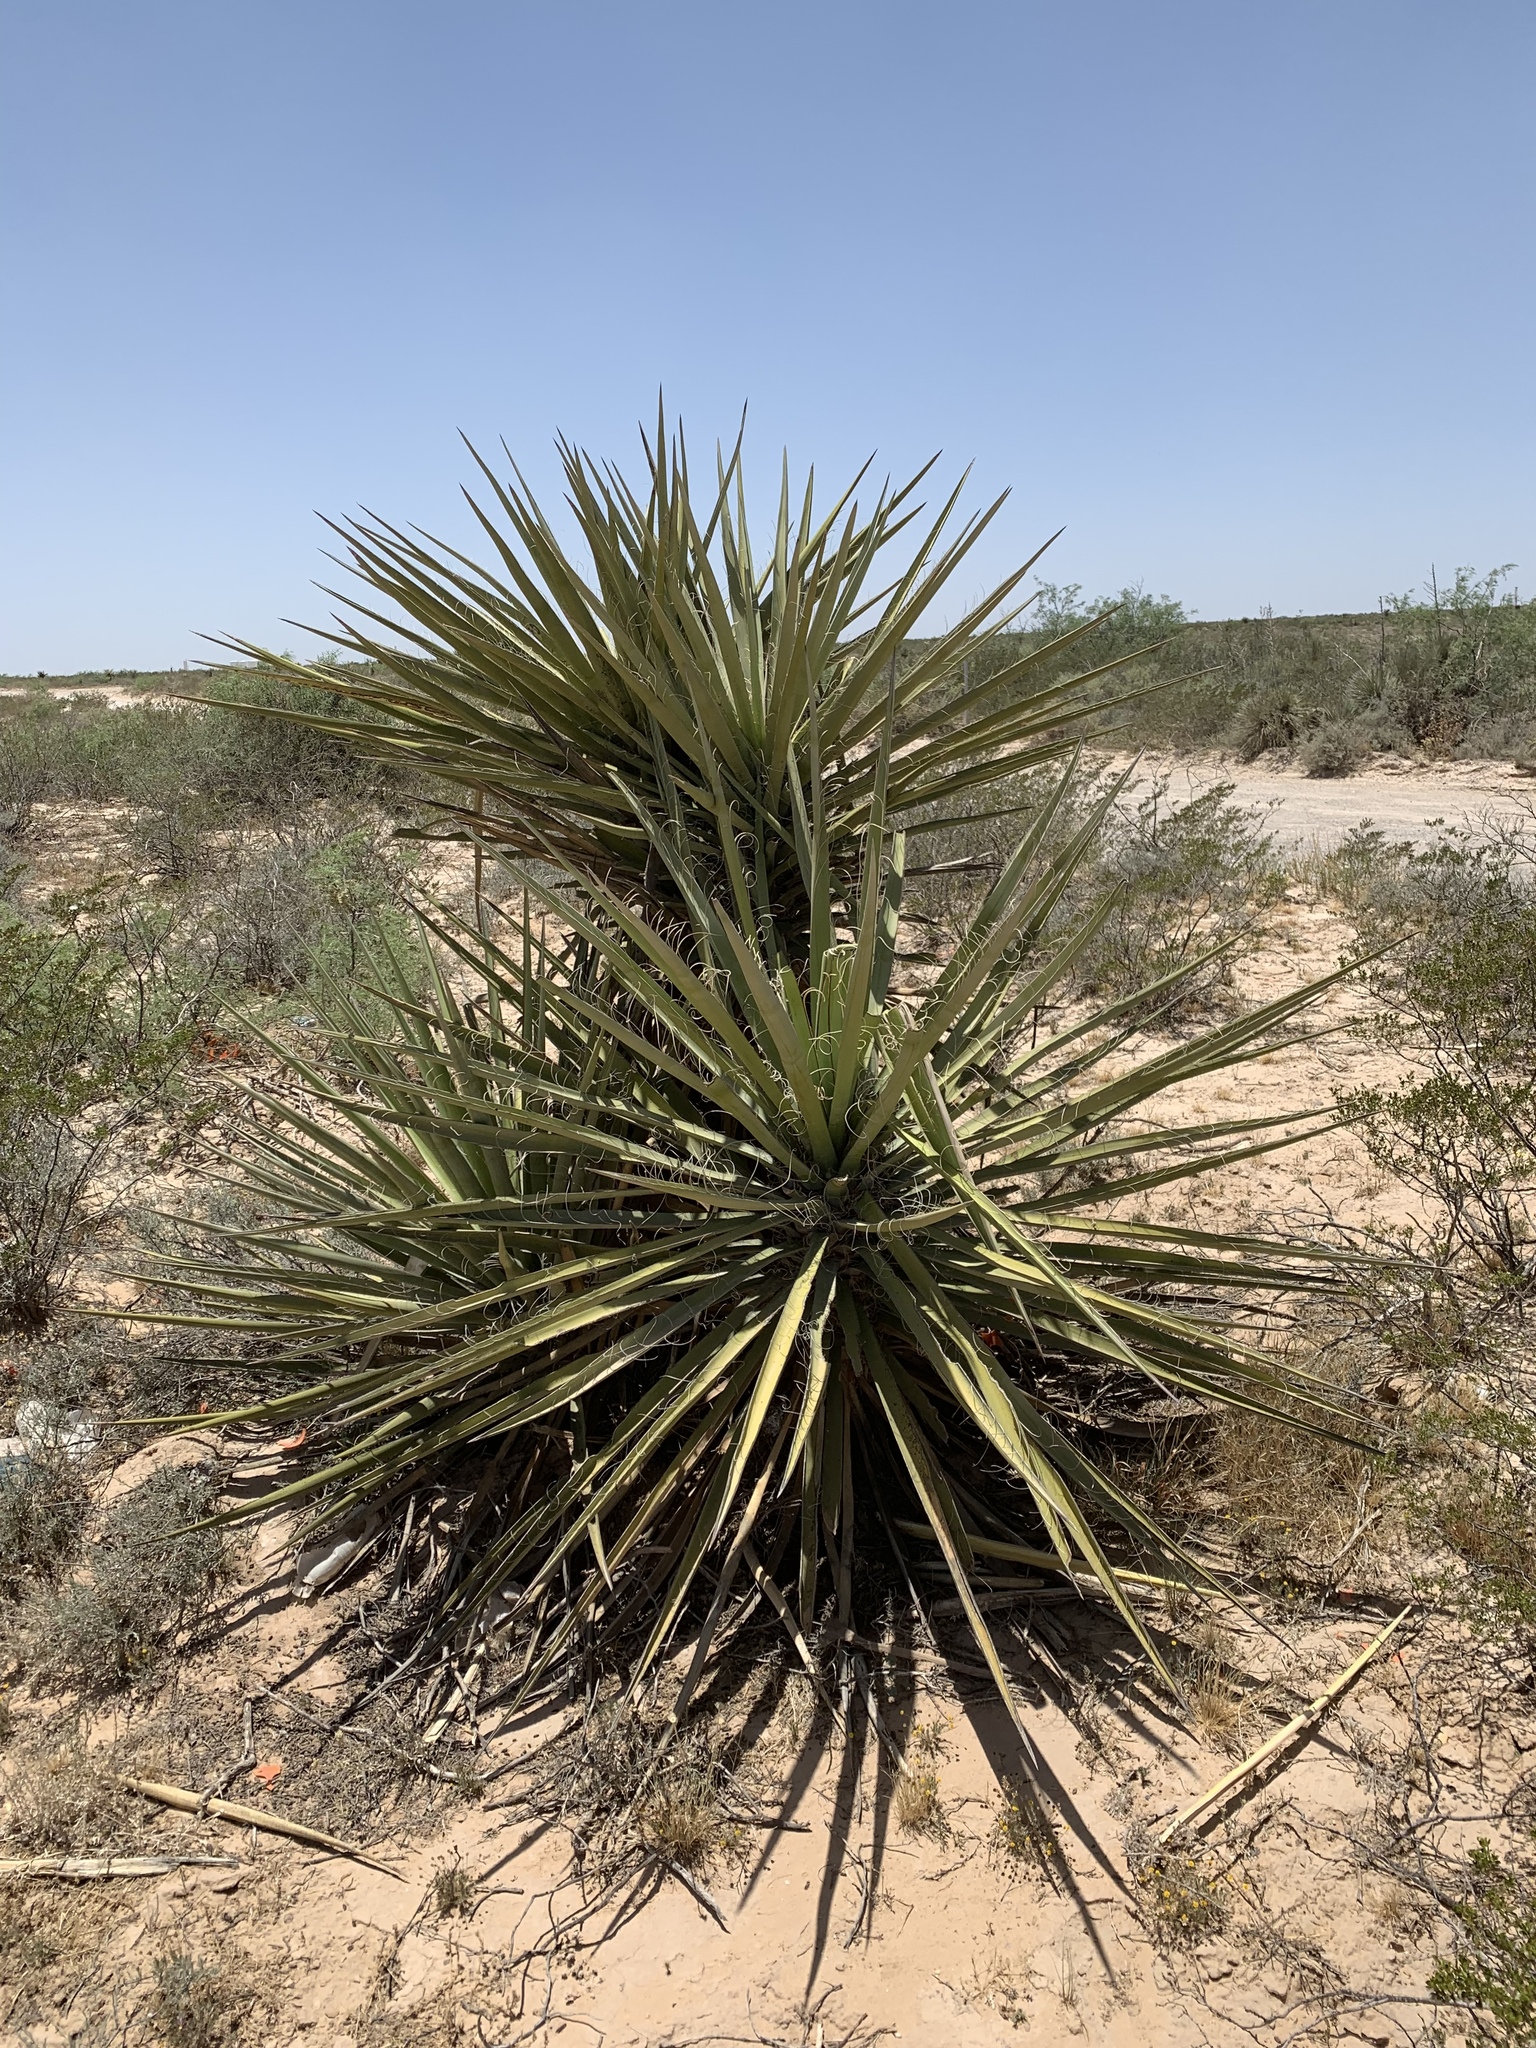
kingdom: Plantae
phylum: Tracheophyta
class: Liliopsida
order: Asparagales
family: Asparagaceae
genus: Yucca
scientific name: Yucca treculiana
